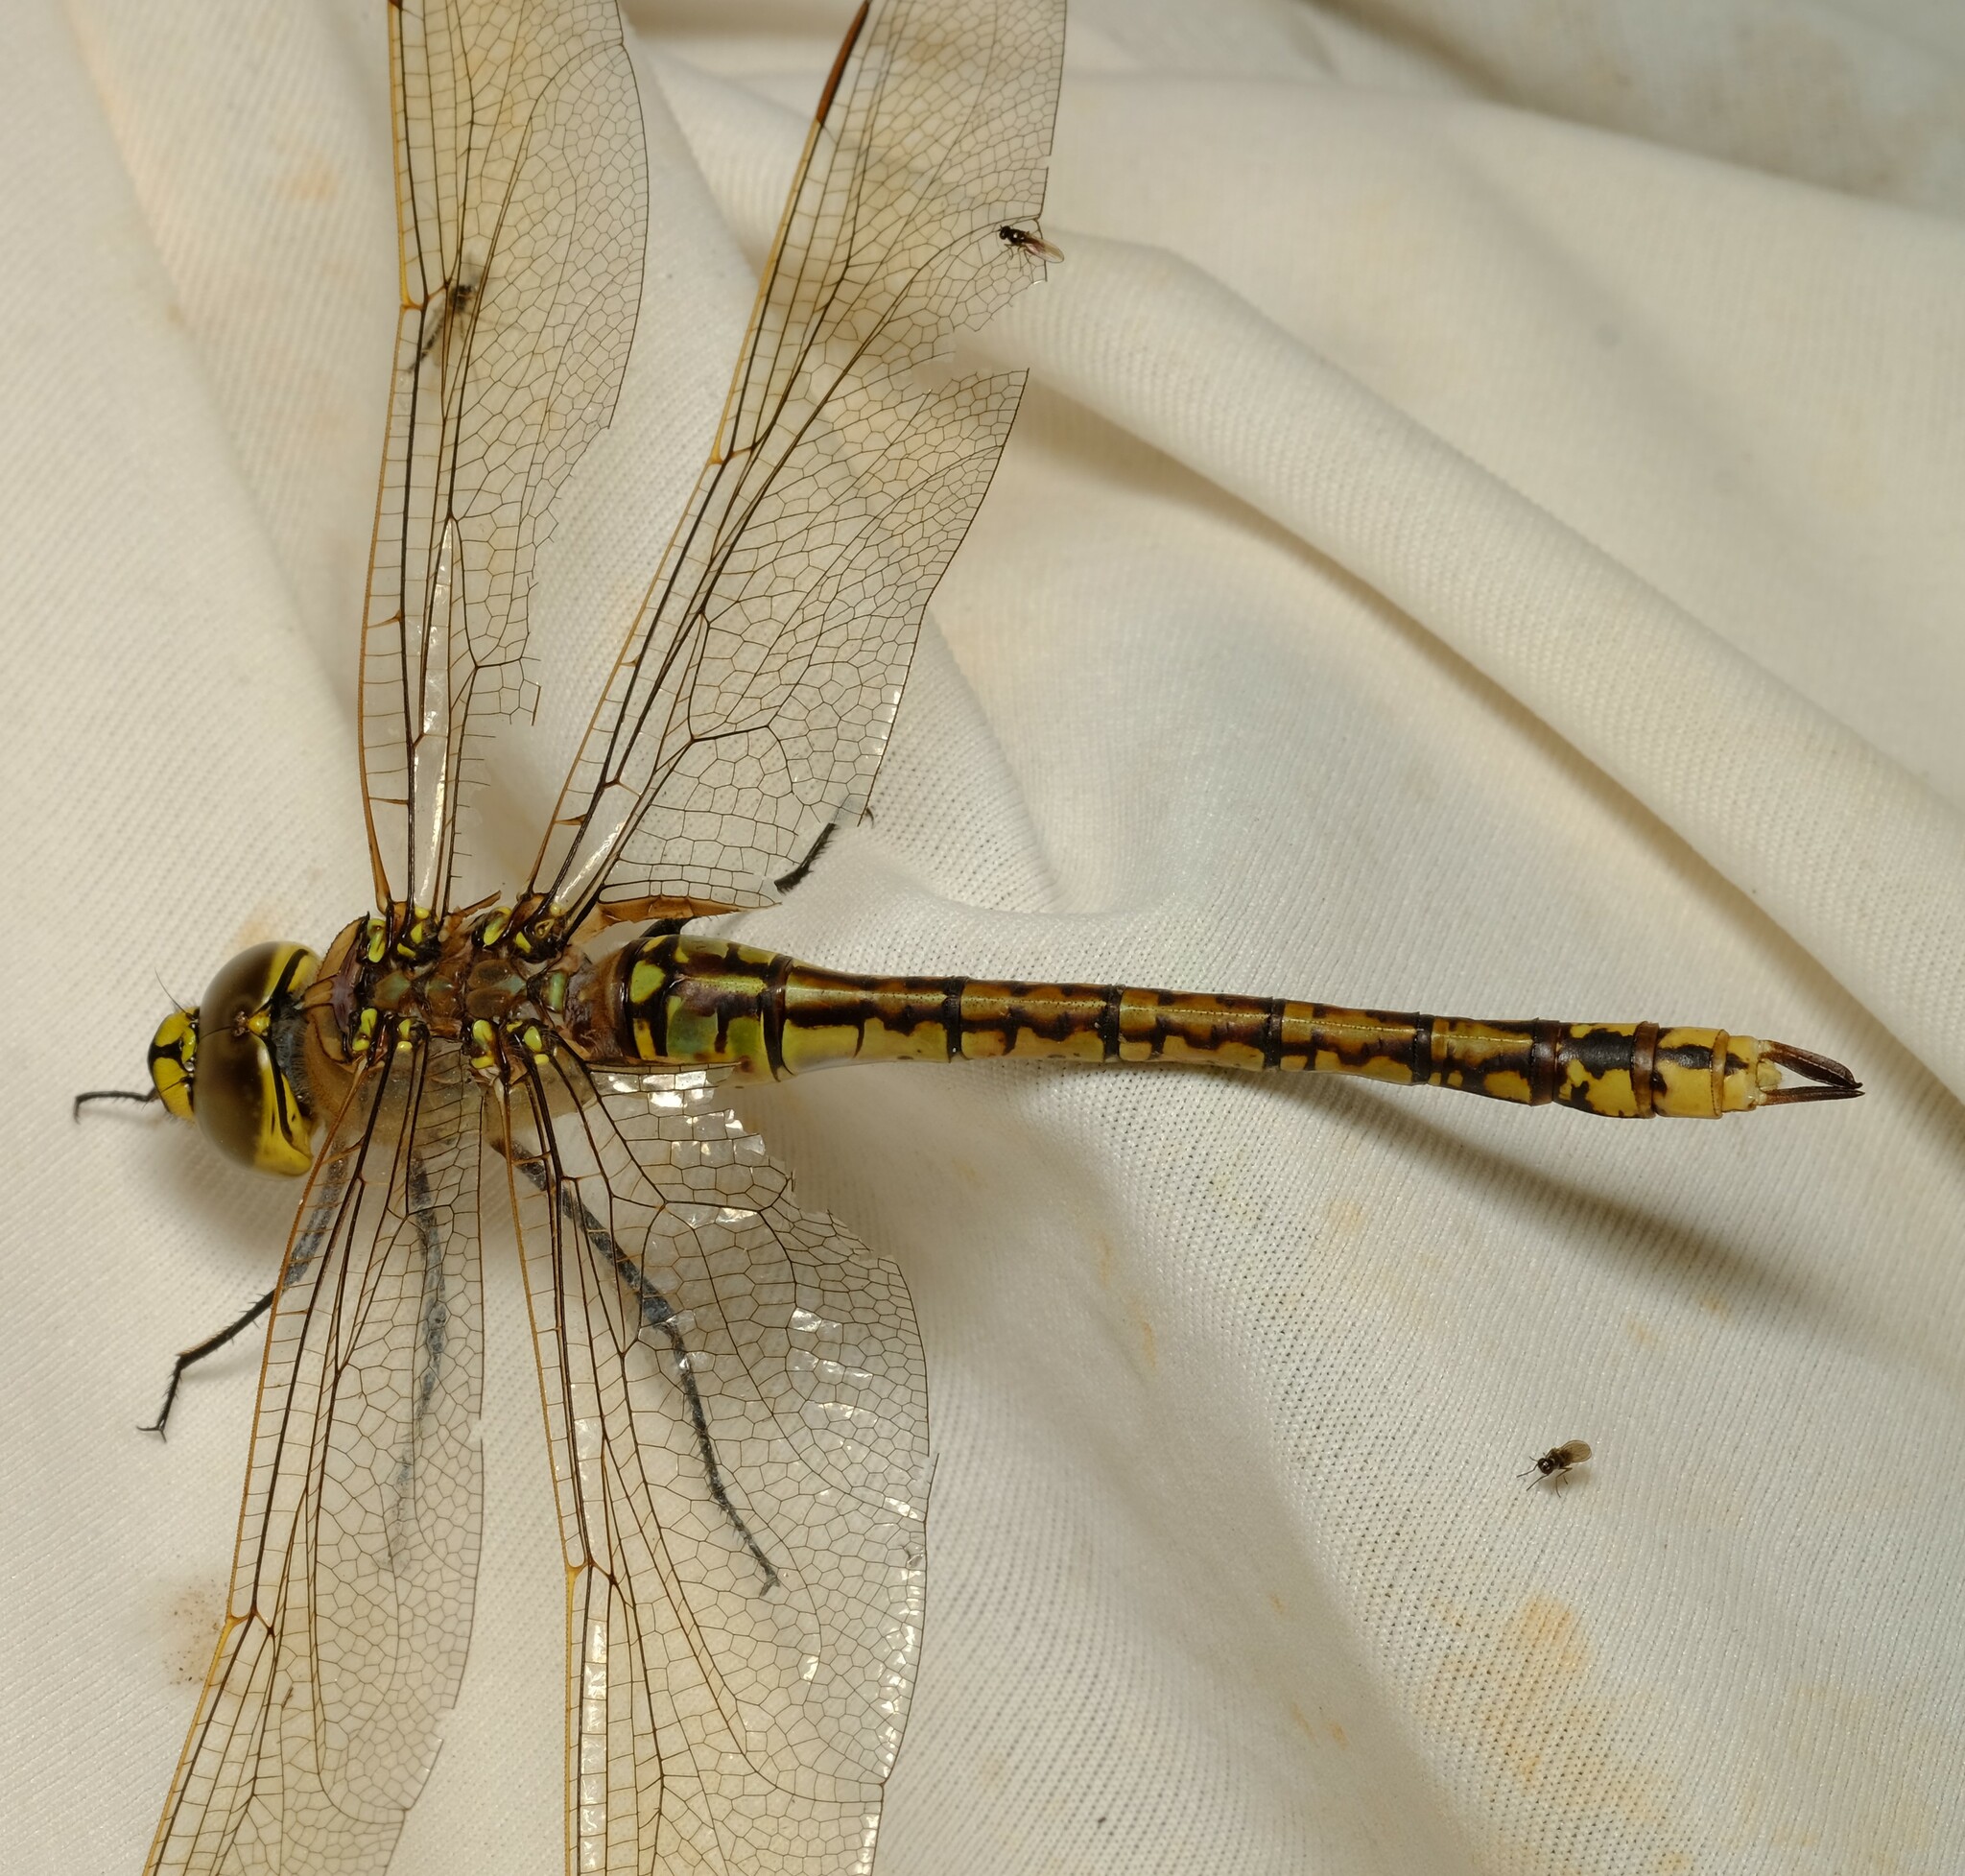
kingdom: Animalia
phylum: Arthropoda
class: Insecta
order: Odonata
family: Aeshnidae
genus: Anax
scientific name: Anax papuensis
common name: Australian emperor
